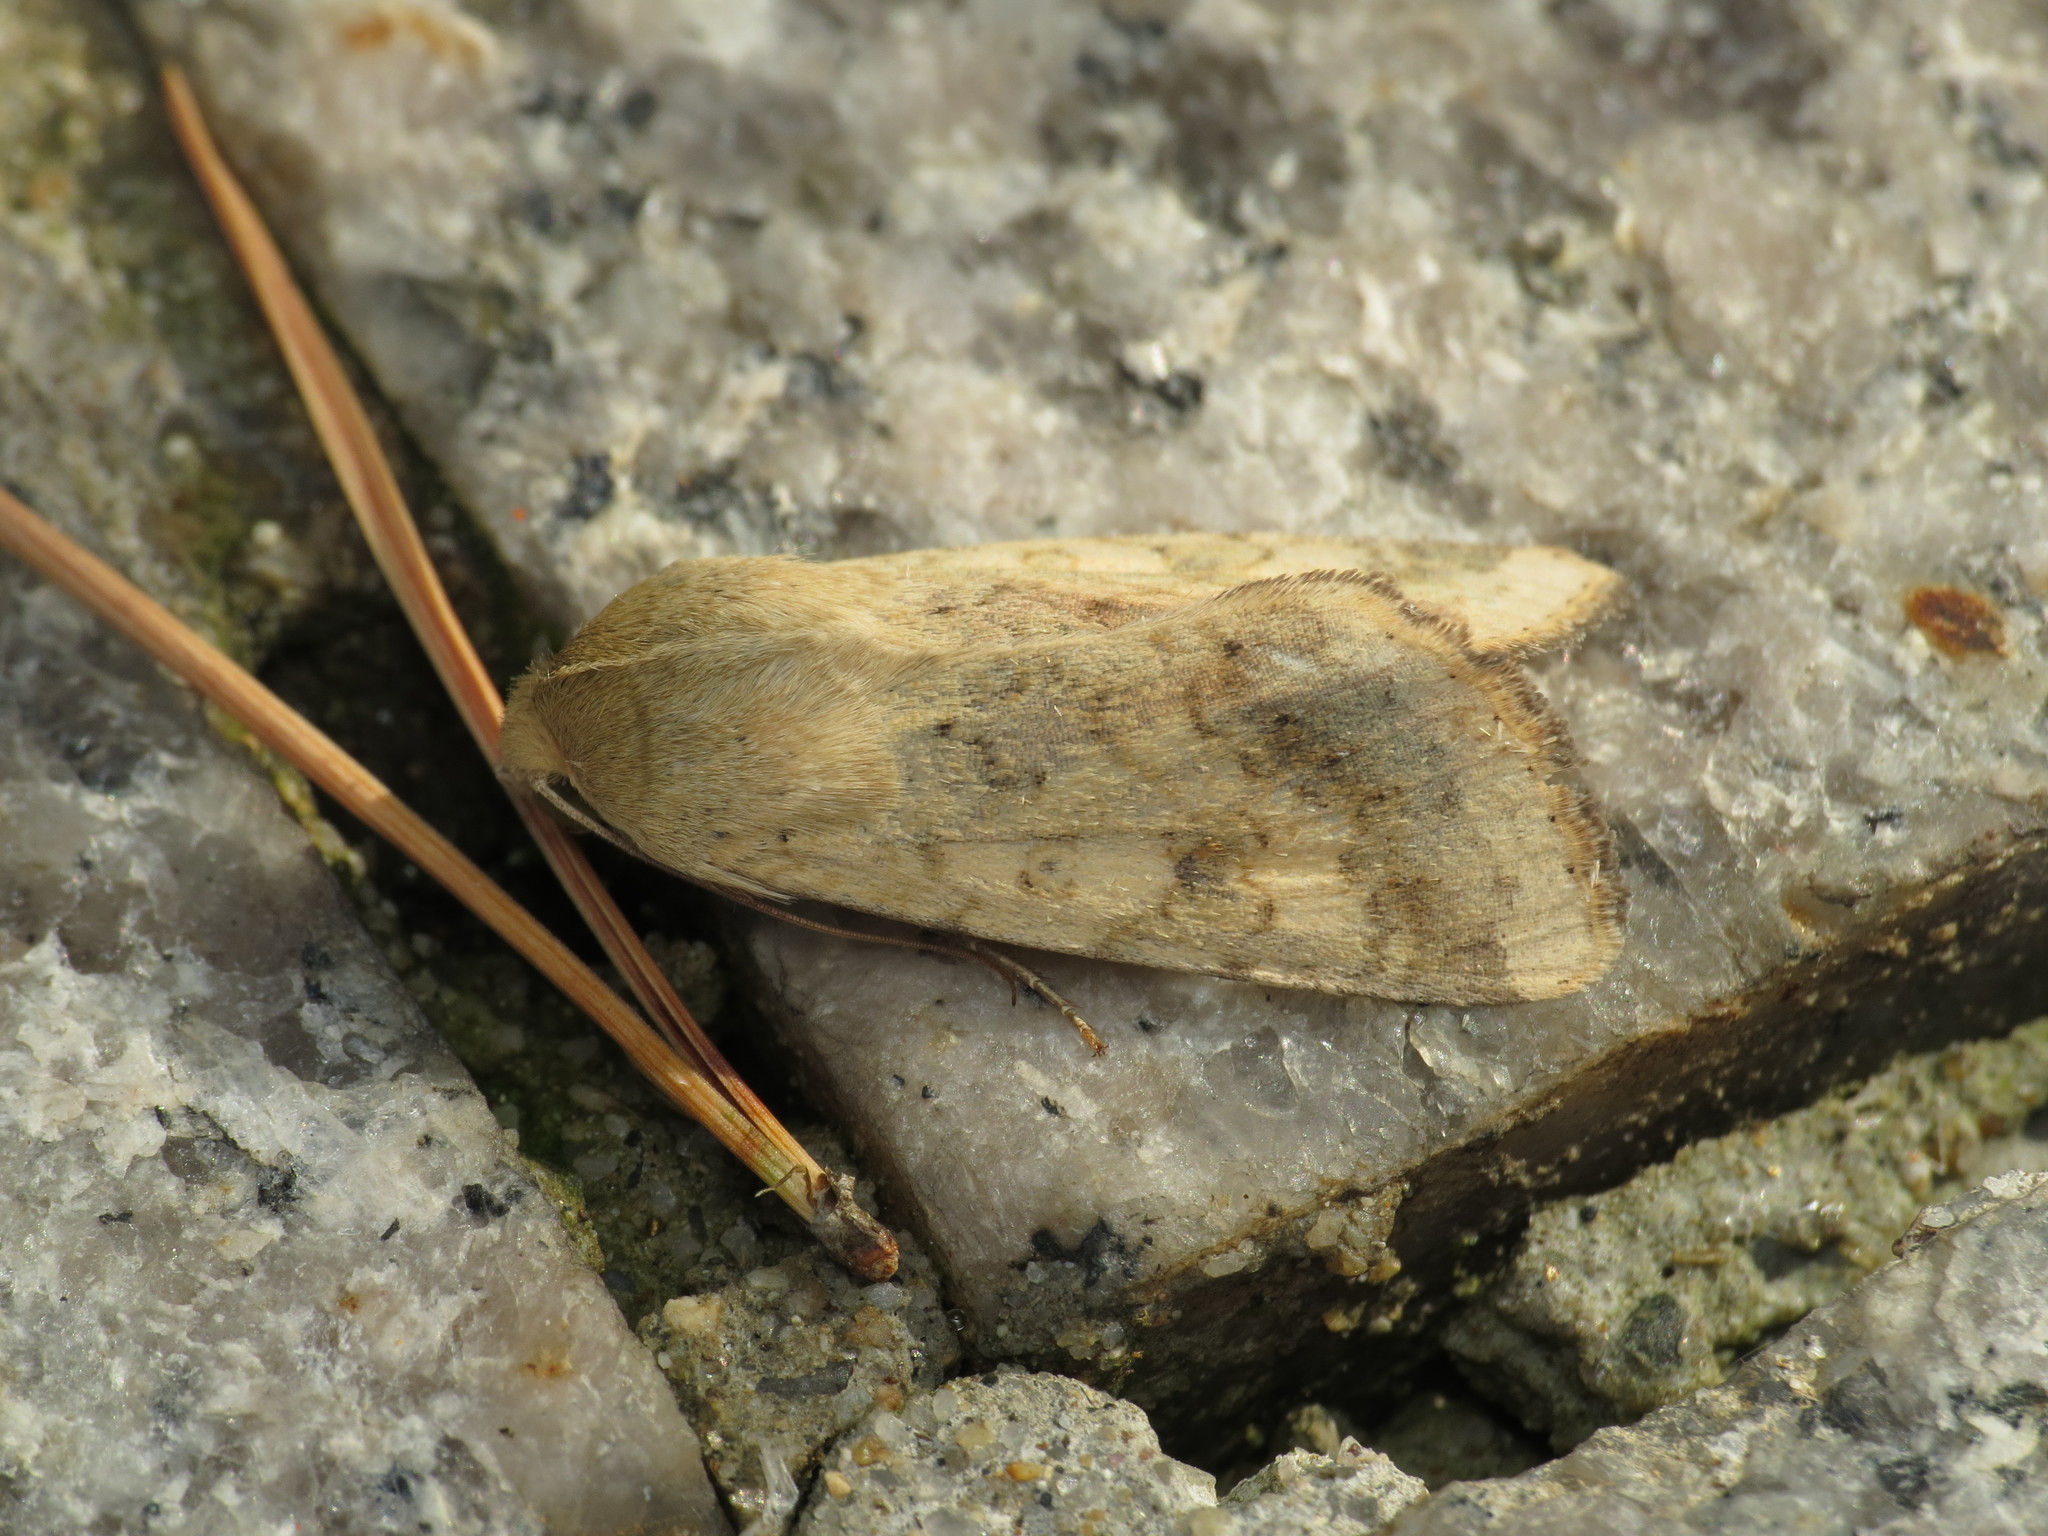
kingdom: Animalia
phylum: Arthropoda
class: Insecta
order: Lepidoptera
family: Noctuidae
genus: Helicoverpa
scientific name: Helicoverpa armigera
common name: Cotton bollworm
